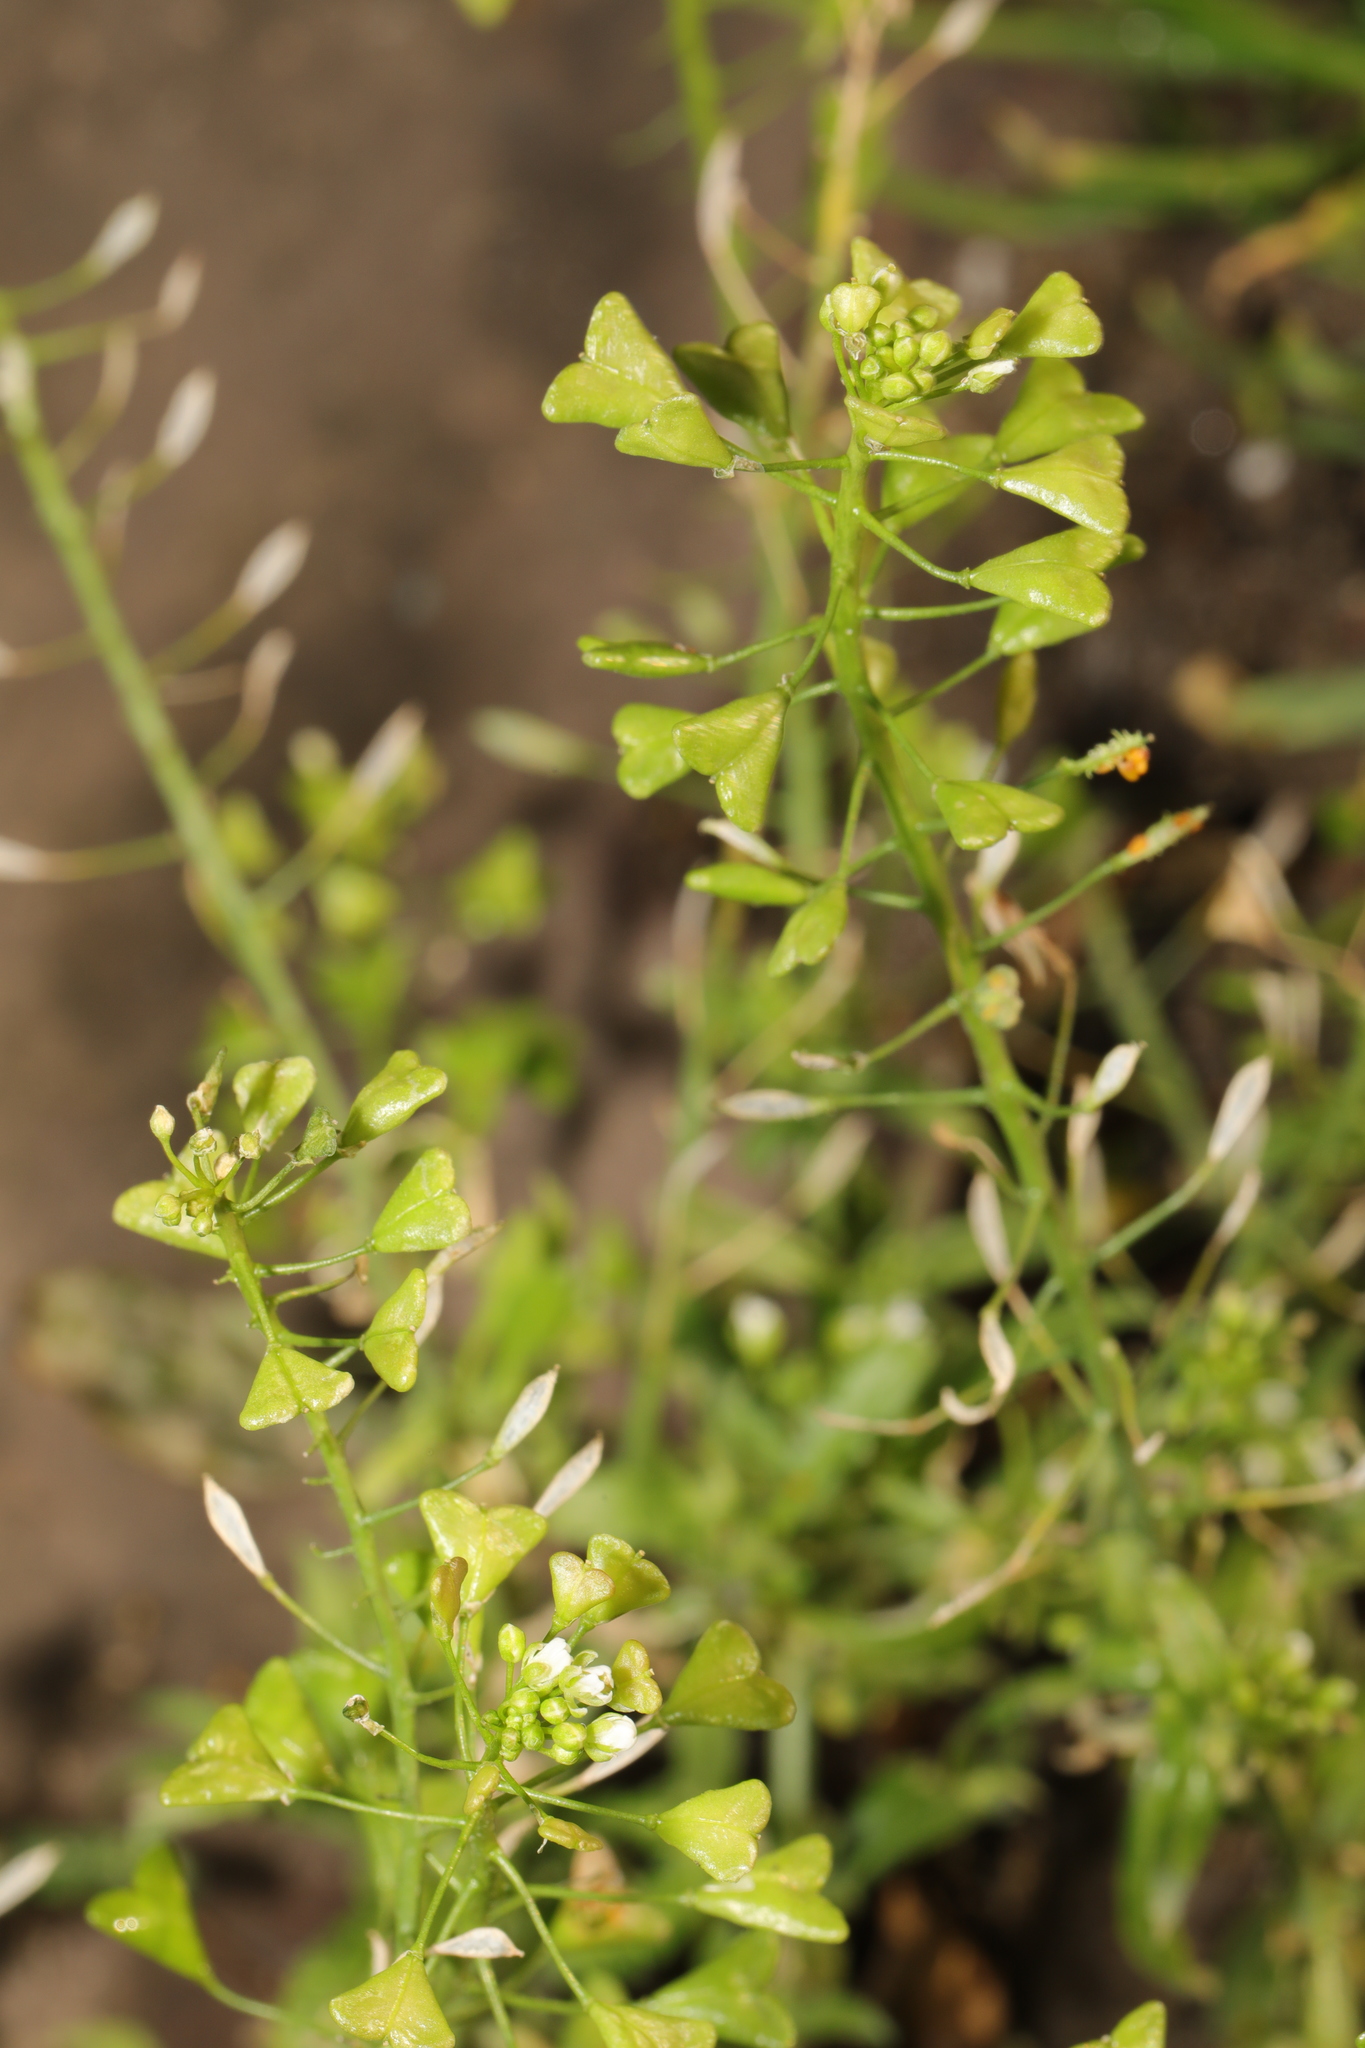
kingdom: Plantae
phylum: Tracheophyta
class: Magnoliopsida
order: Brassicales
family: Brassicaceae
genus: Capsella
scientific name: Capsella bursa-pastoris
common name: Shepherd's purse
